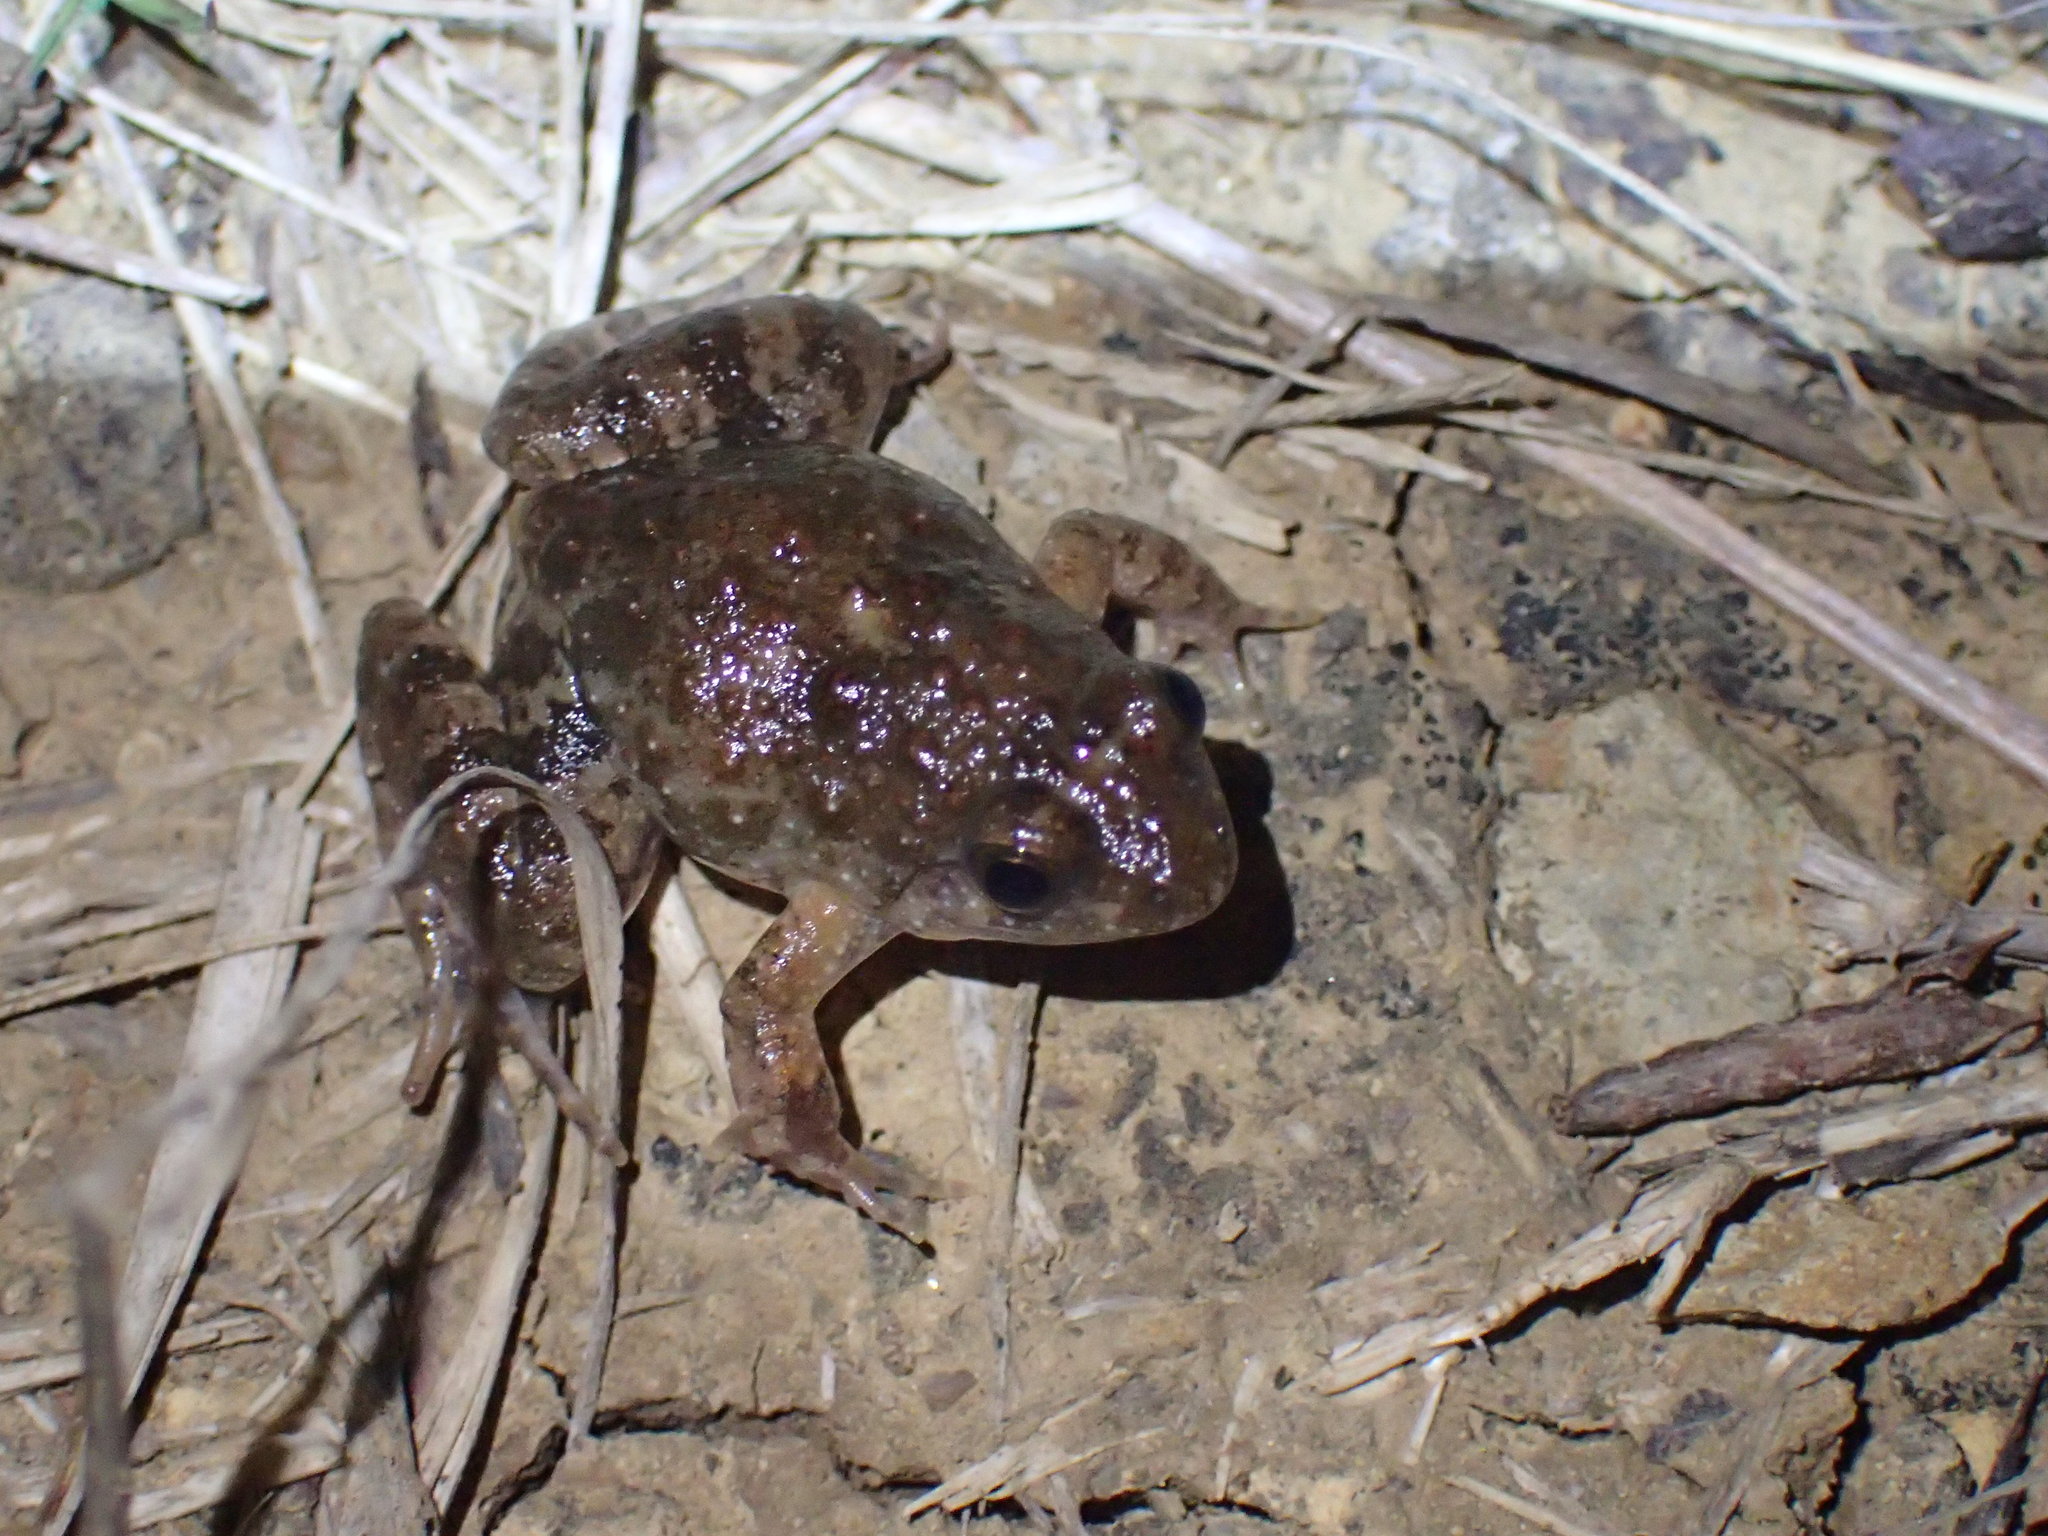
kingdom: Animalia
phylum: Chordata
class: Amphibia
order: Anura
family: Phrynobatrachidae
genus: Phrynobatrachus
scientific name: Phrynobatrachus natalensis
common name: Snoring puddle frog
